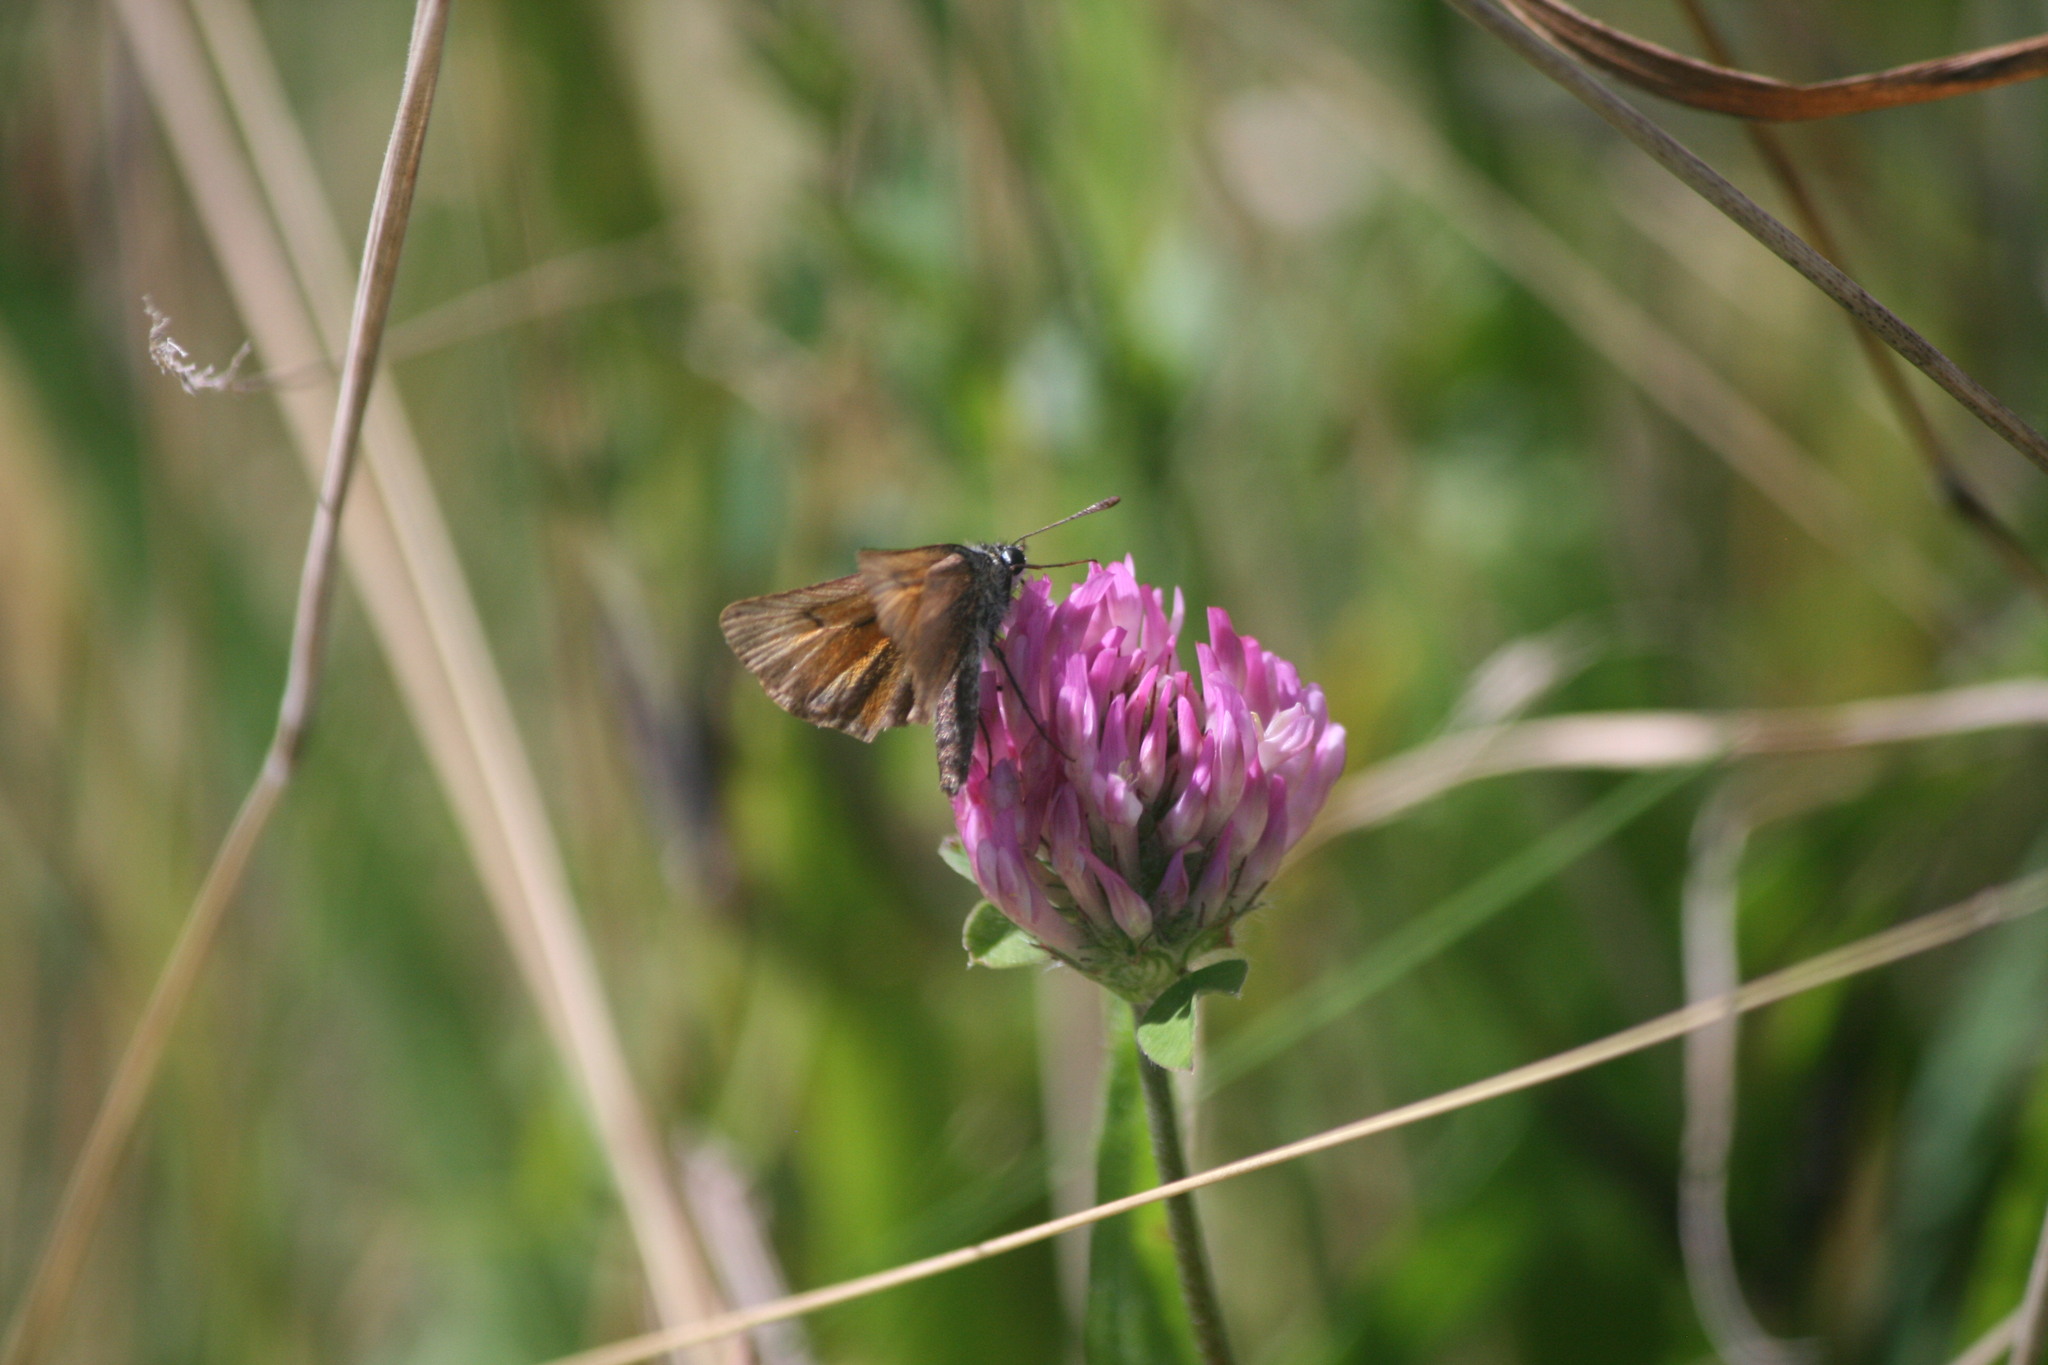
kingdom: Animalia
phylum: Arthropoda
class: Insecta
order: Lepidoptera
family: Hesperiidae
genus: Thymelicus
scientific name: Thymelicus lineola
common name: Essex skipper
